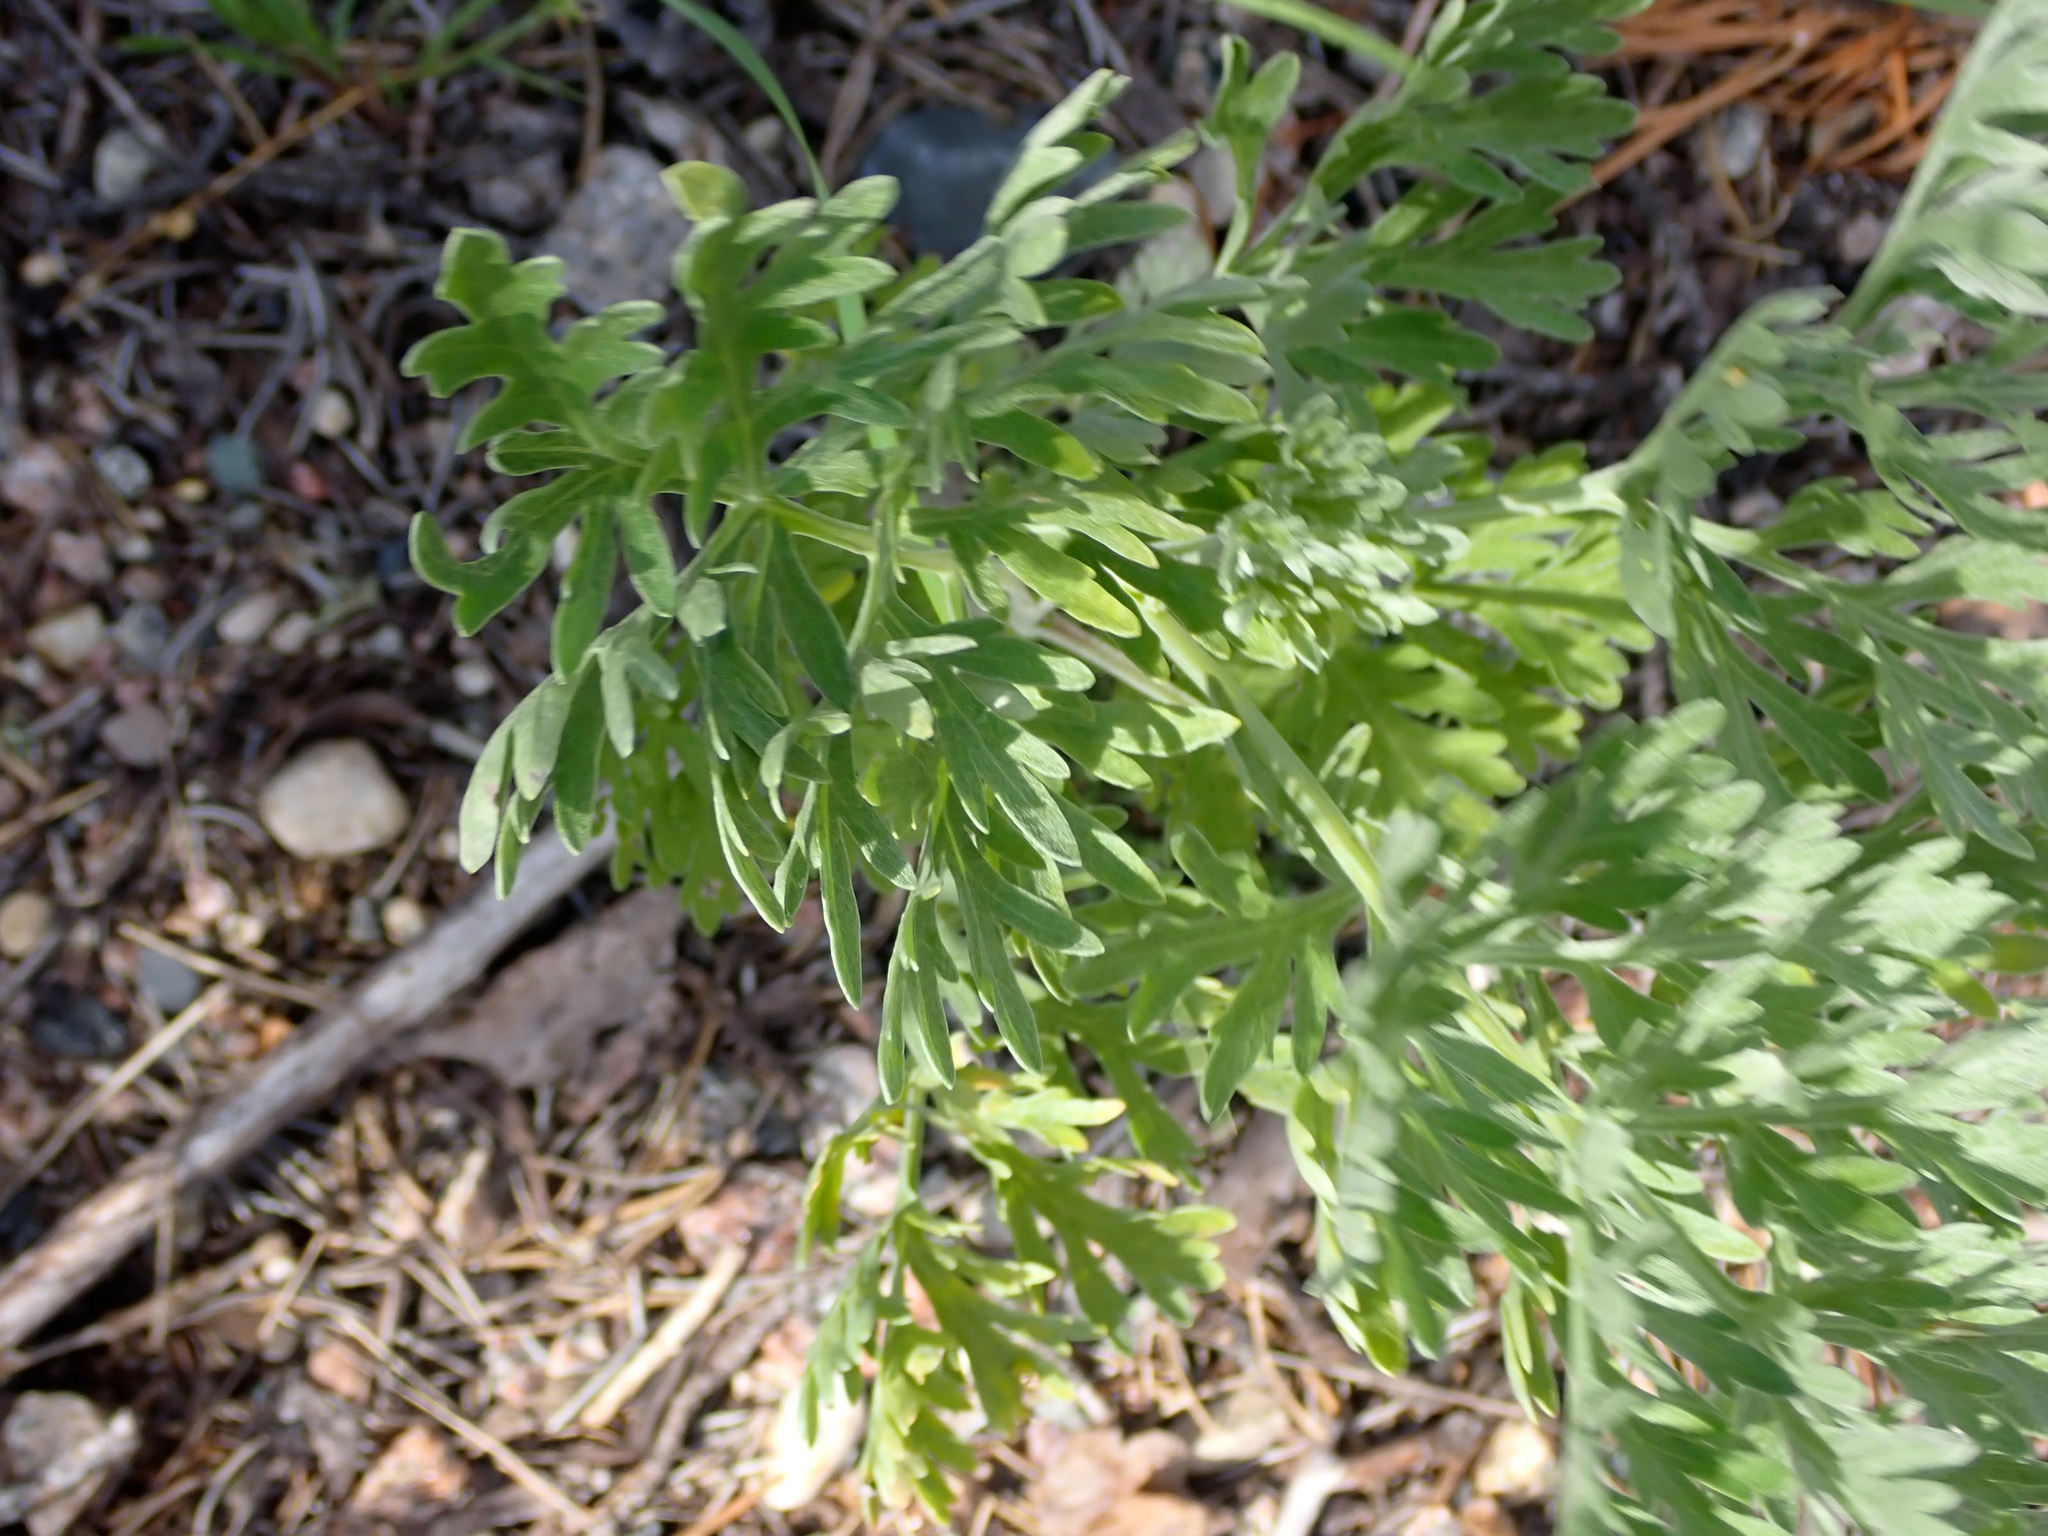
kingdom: Plantae
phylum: Tracheophyta
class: Magnoliopsida
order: Asterales
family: Asteraceae
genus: Artemisia
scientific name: Artemisia absinthium
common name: Wormwood
